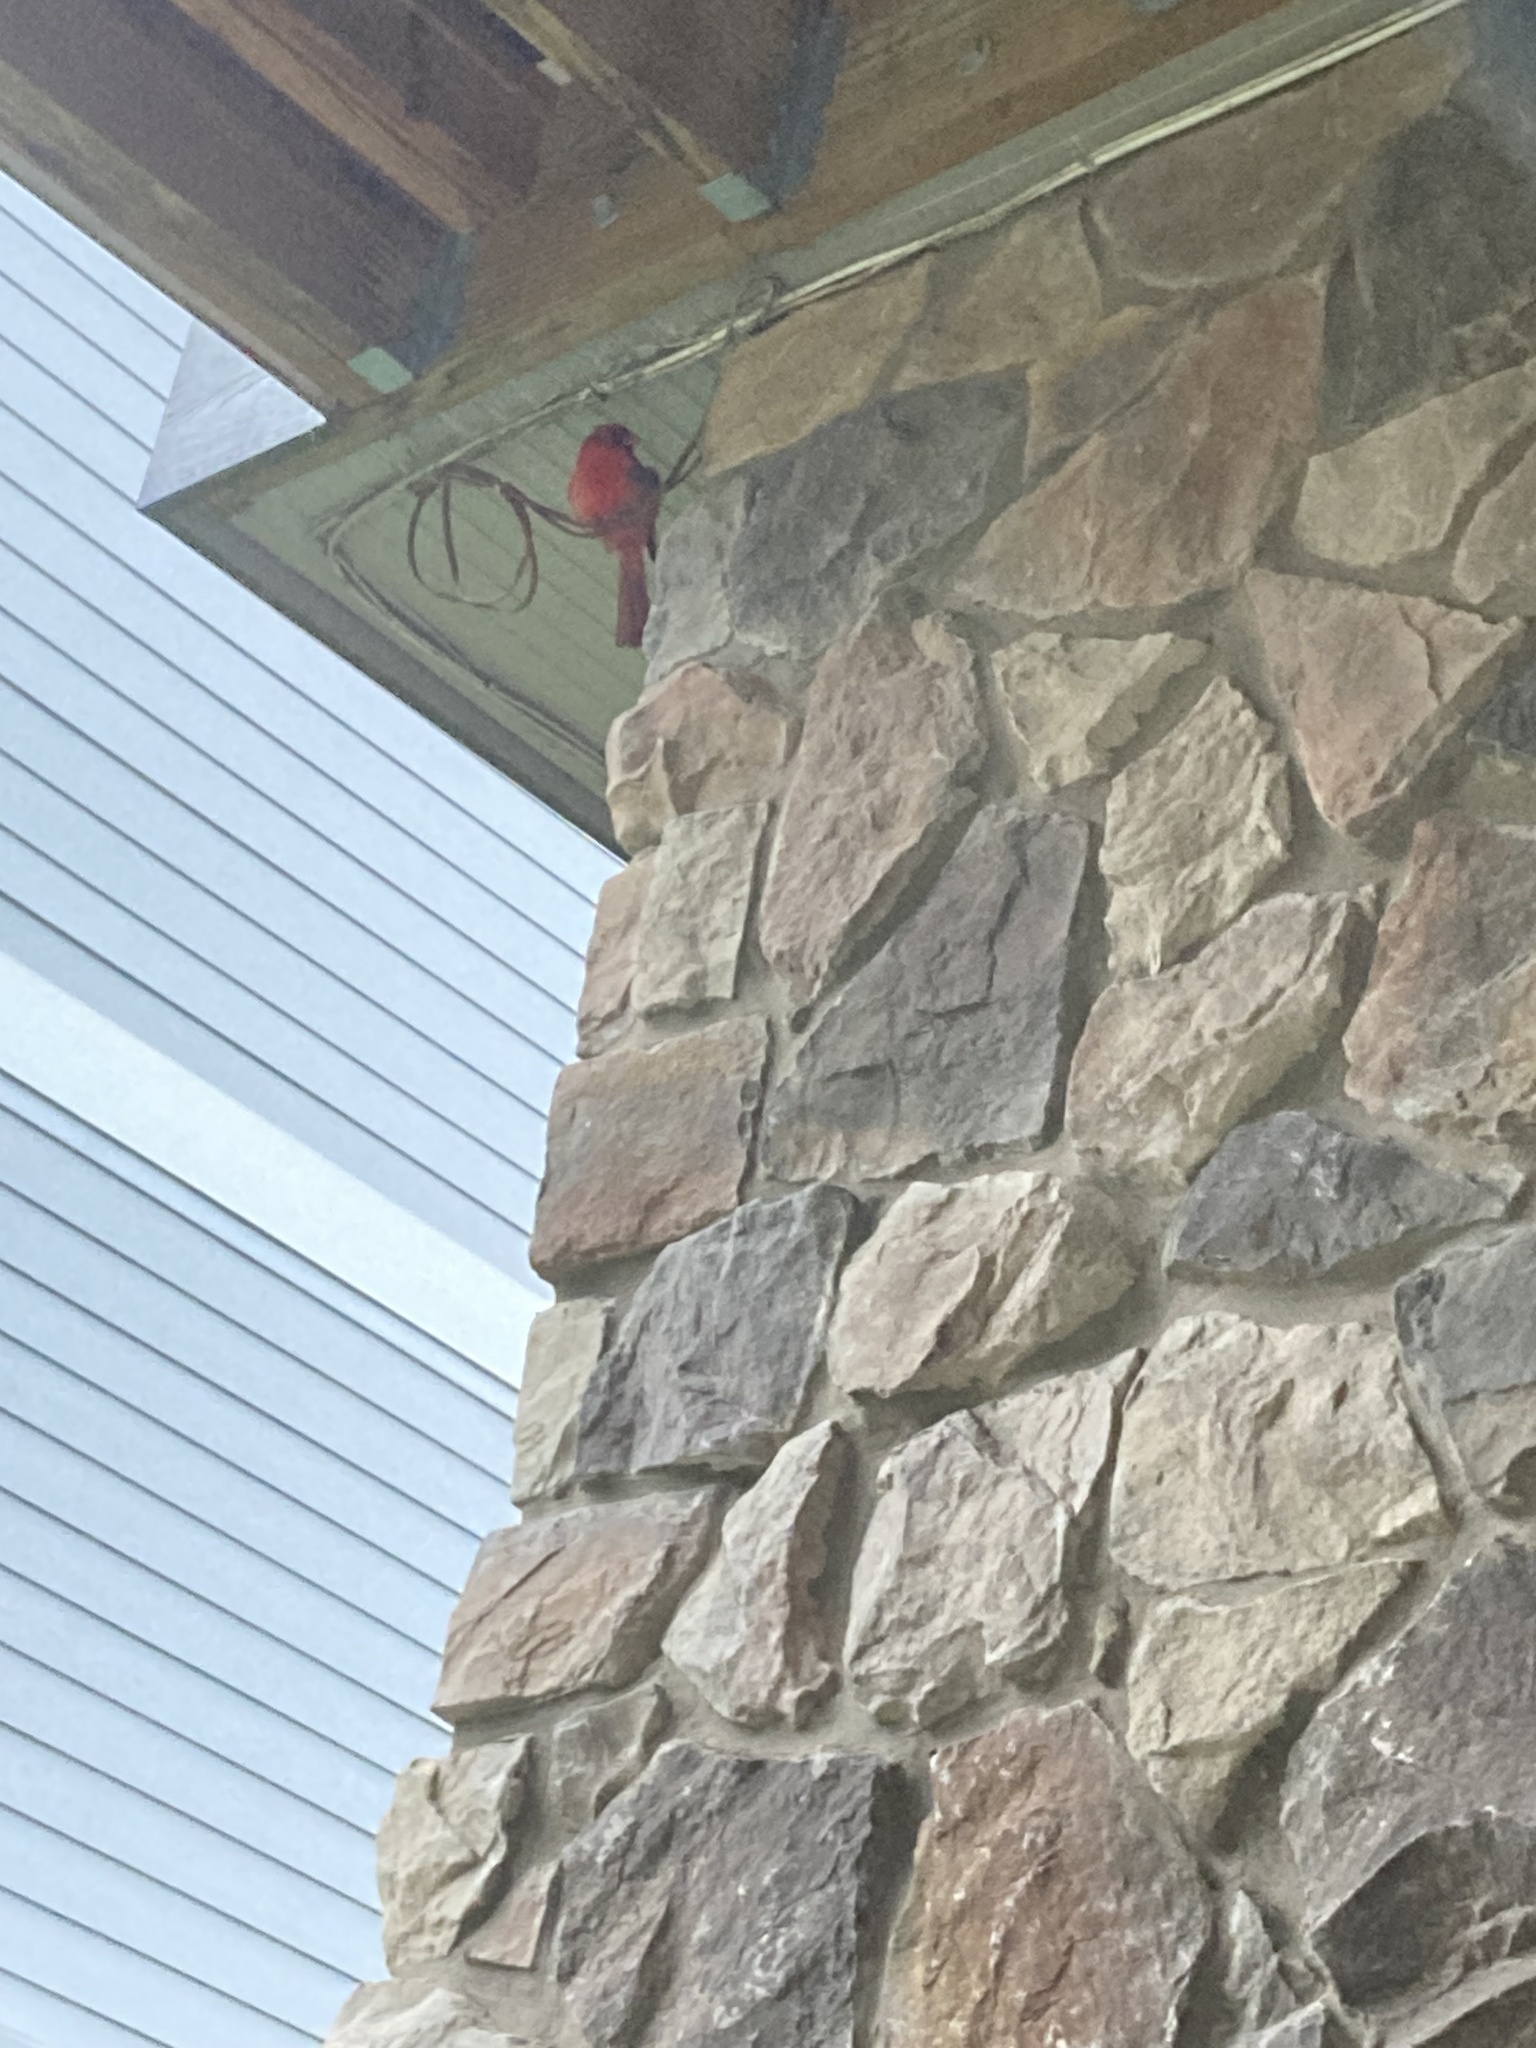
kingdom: Animalia
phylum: Chordata
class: Aves
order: Passeriformes
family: Cardinalidae
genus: Cardinalis
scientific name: Cardinalis cardinalis
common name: Northern cardinal
